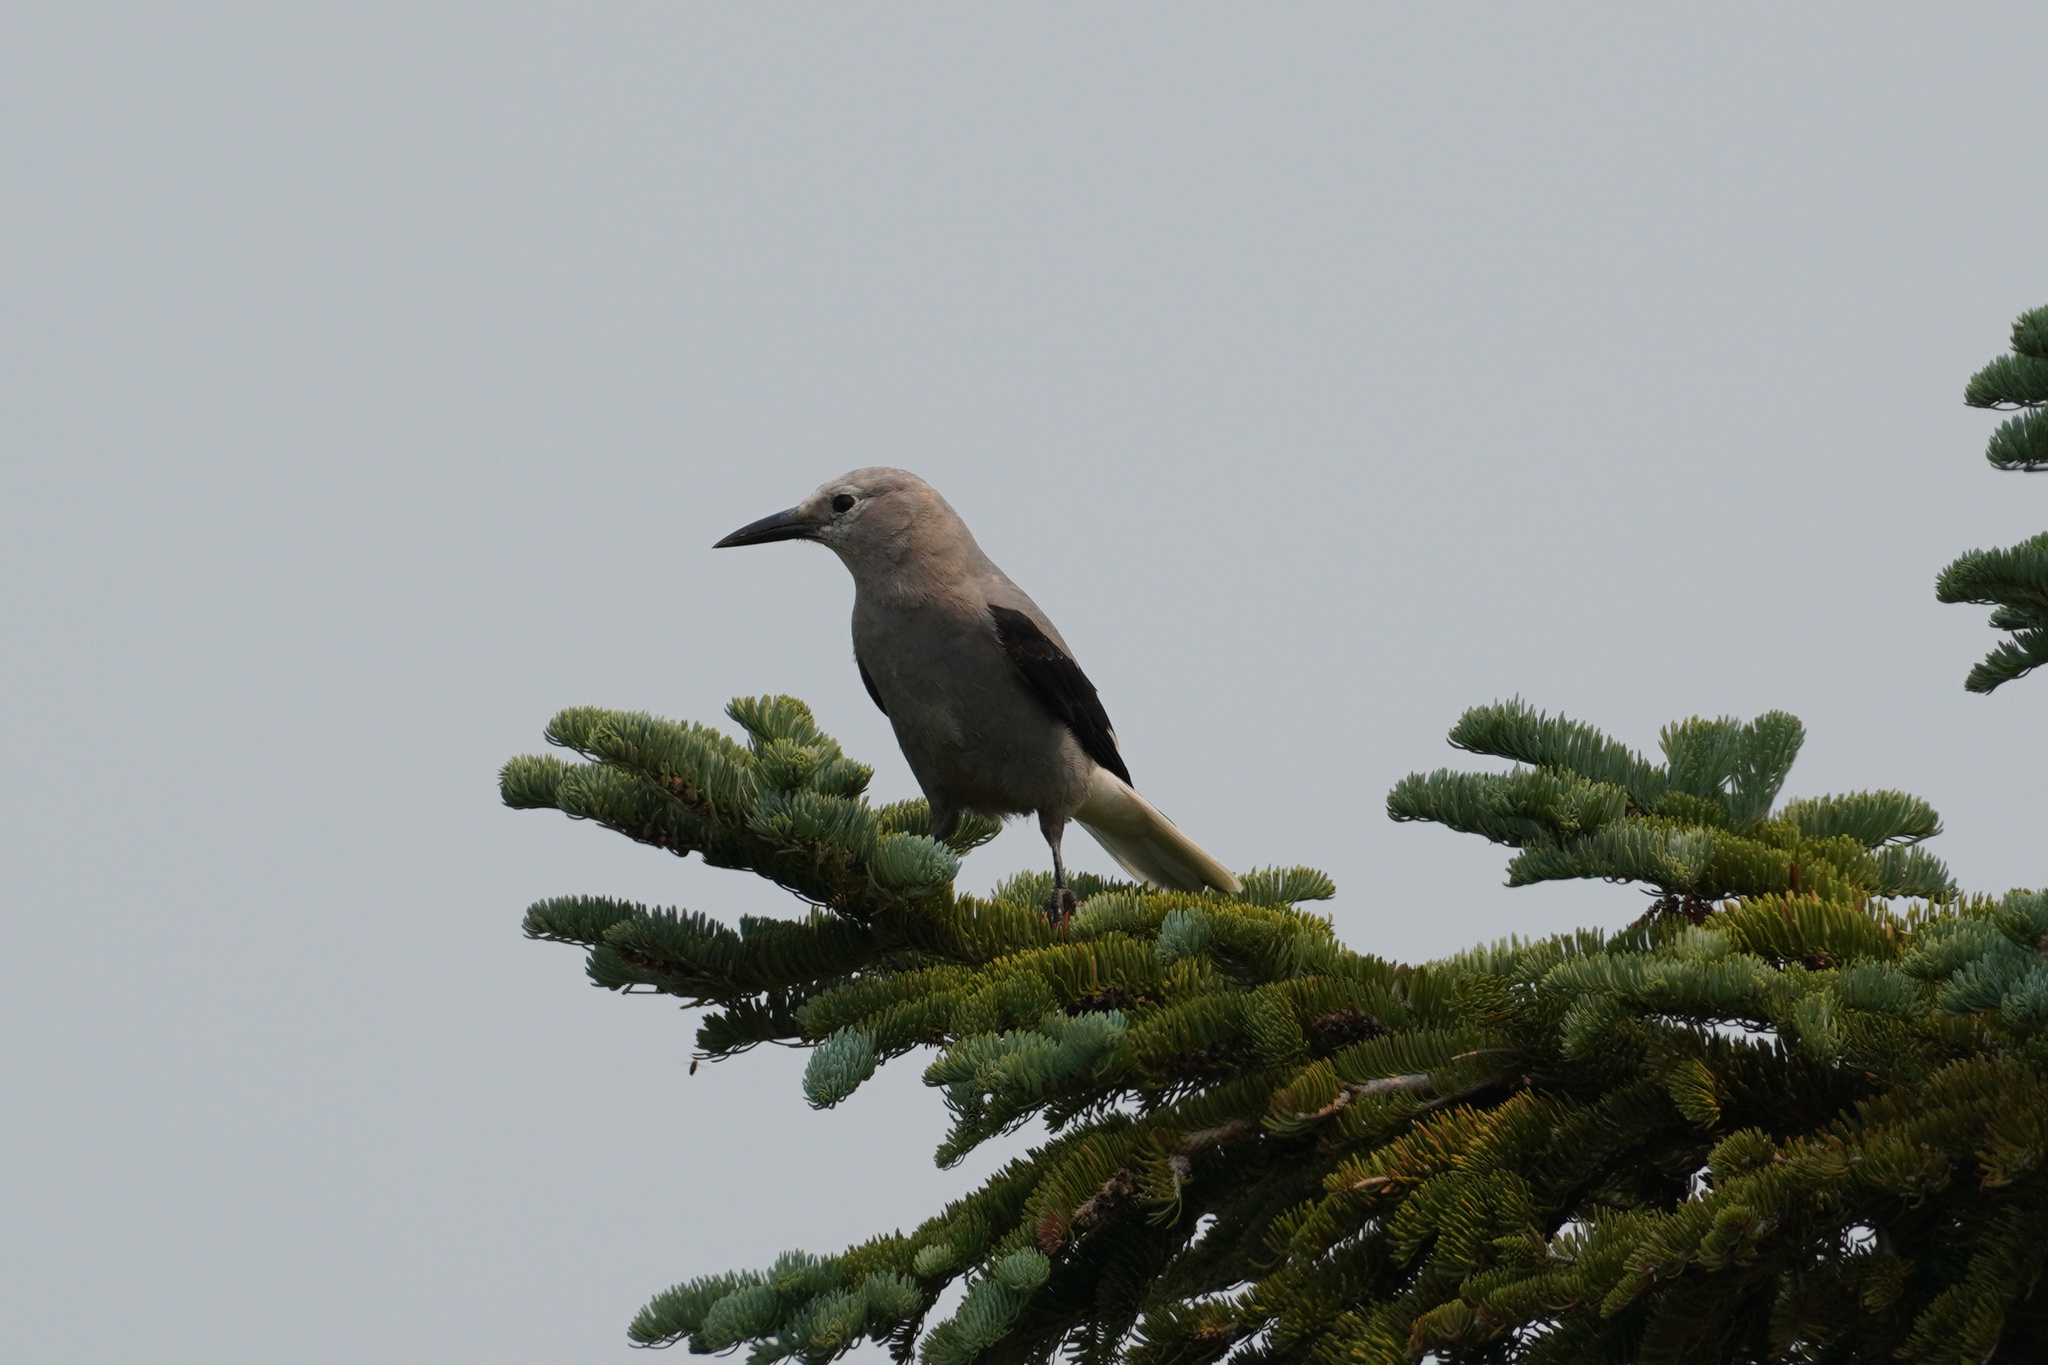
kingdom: Animalia
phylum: Chordata
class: Aves
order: Passeriformes
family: Corvidae
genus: Nucifraga
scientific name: Nucifraga columbiana
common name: Clark's nutcracker
